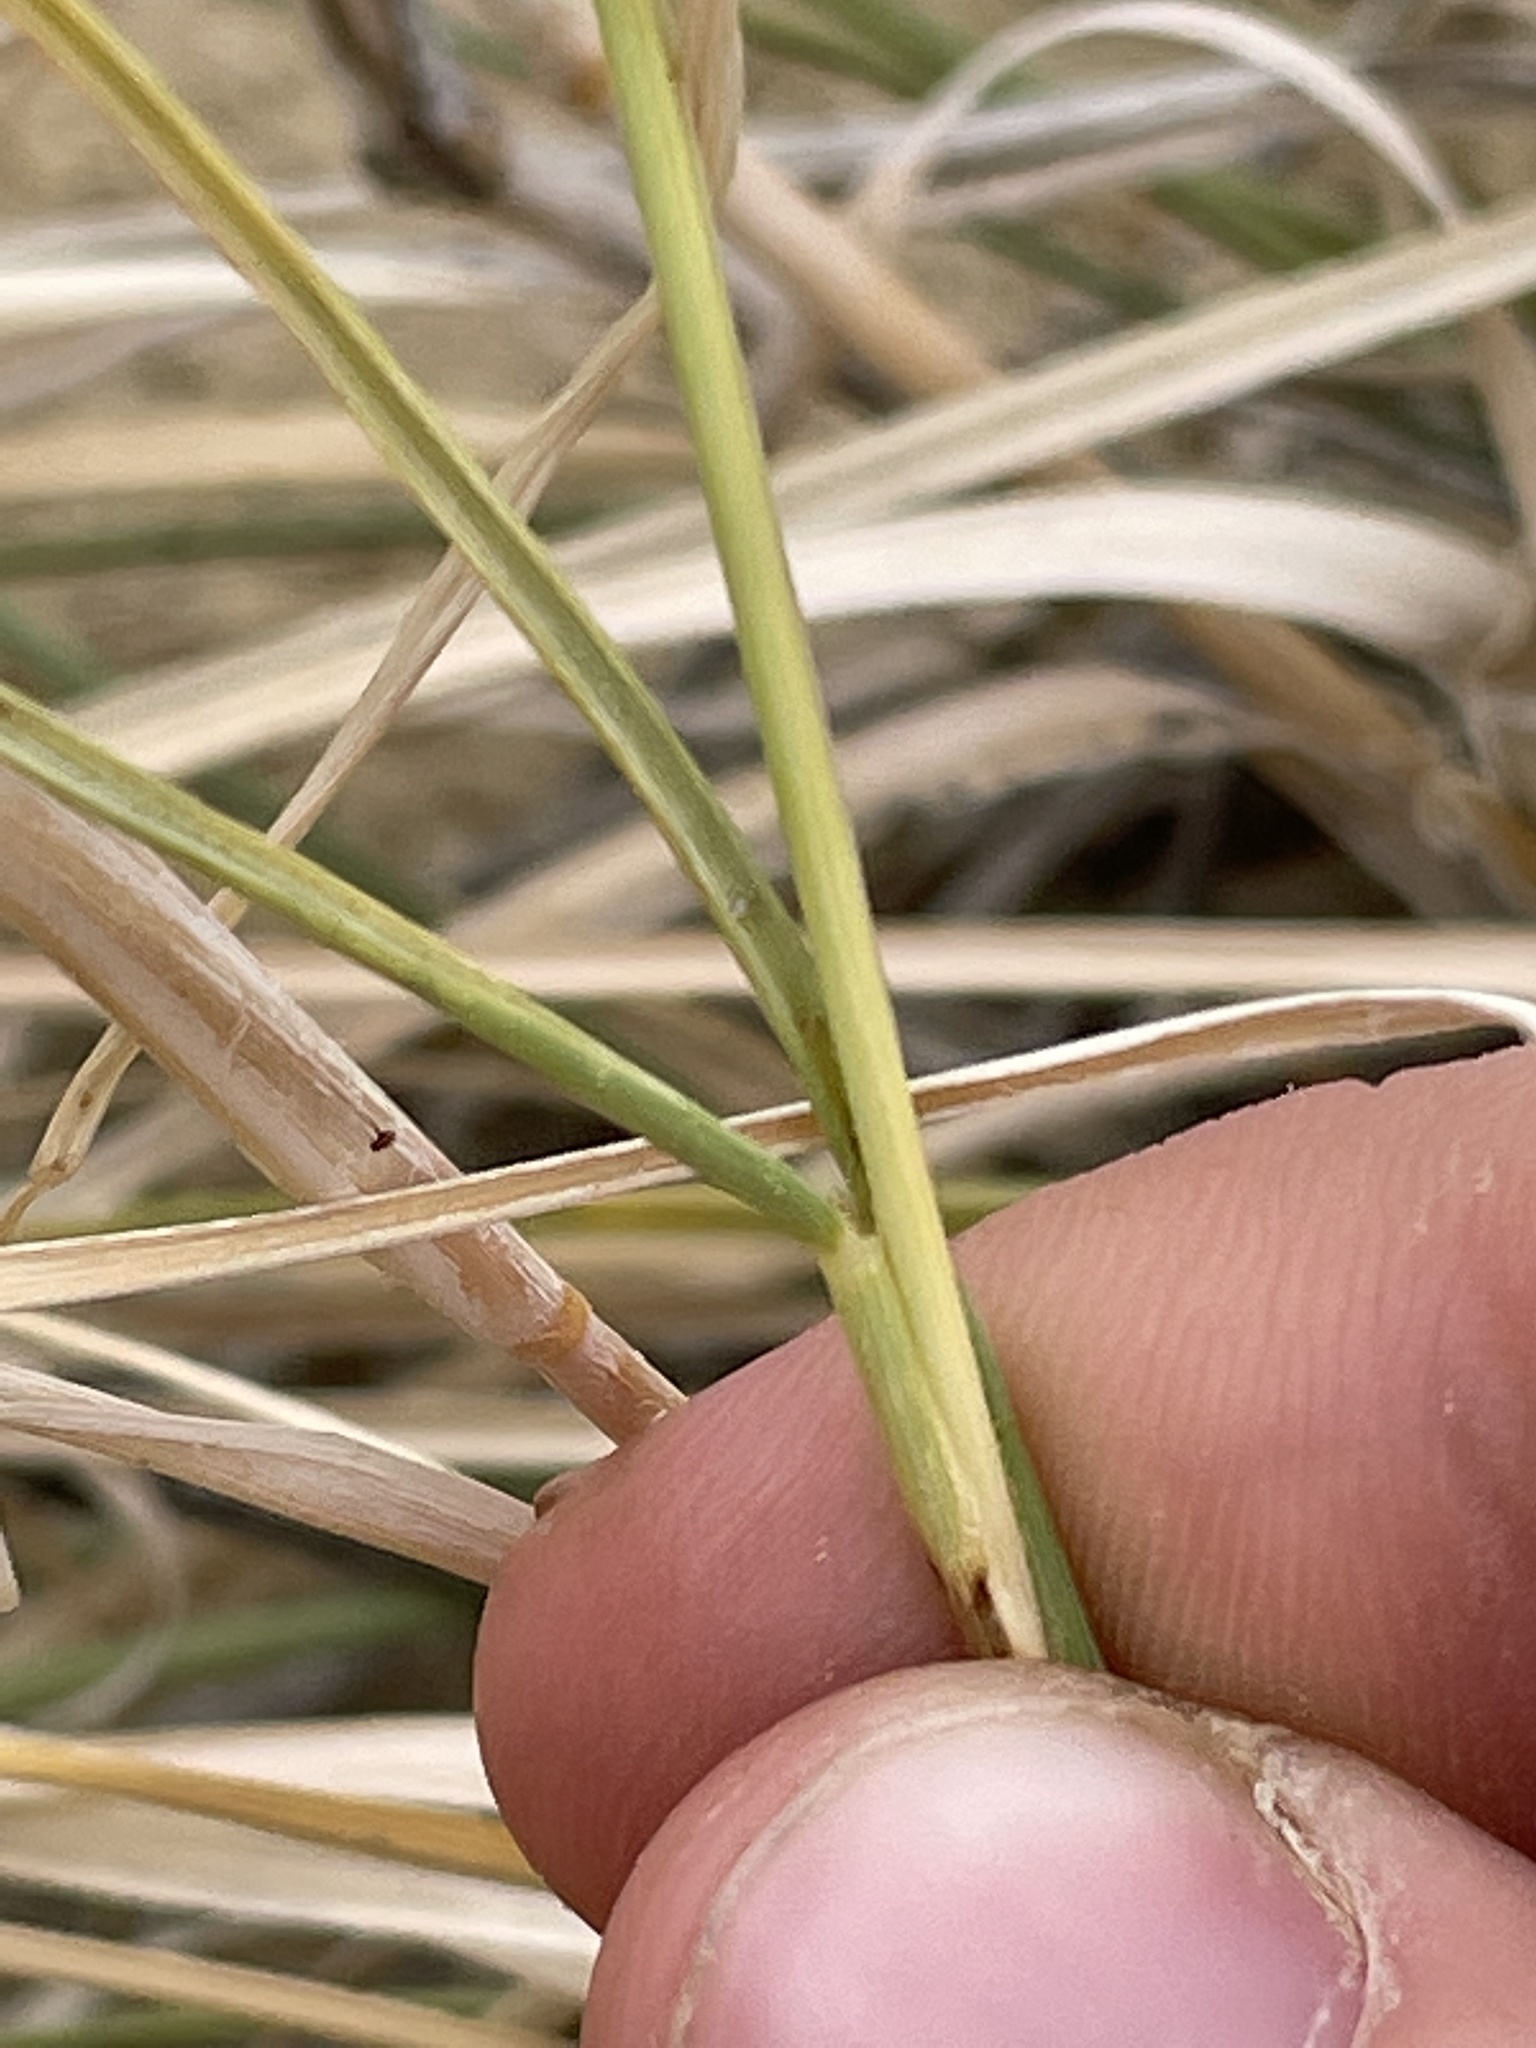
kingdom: Plantae
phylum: Tracheophyta
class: Liliopsida
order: Poales
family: Poaceae
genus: Sporobolus
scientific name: Sporobolus airoides
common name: Alkali sacaton
